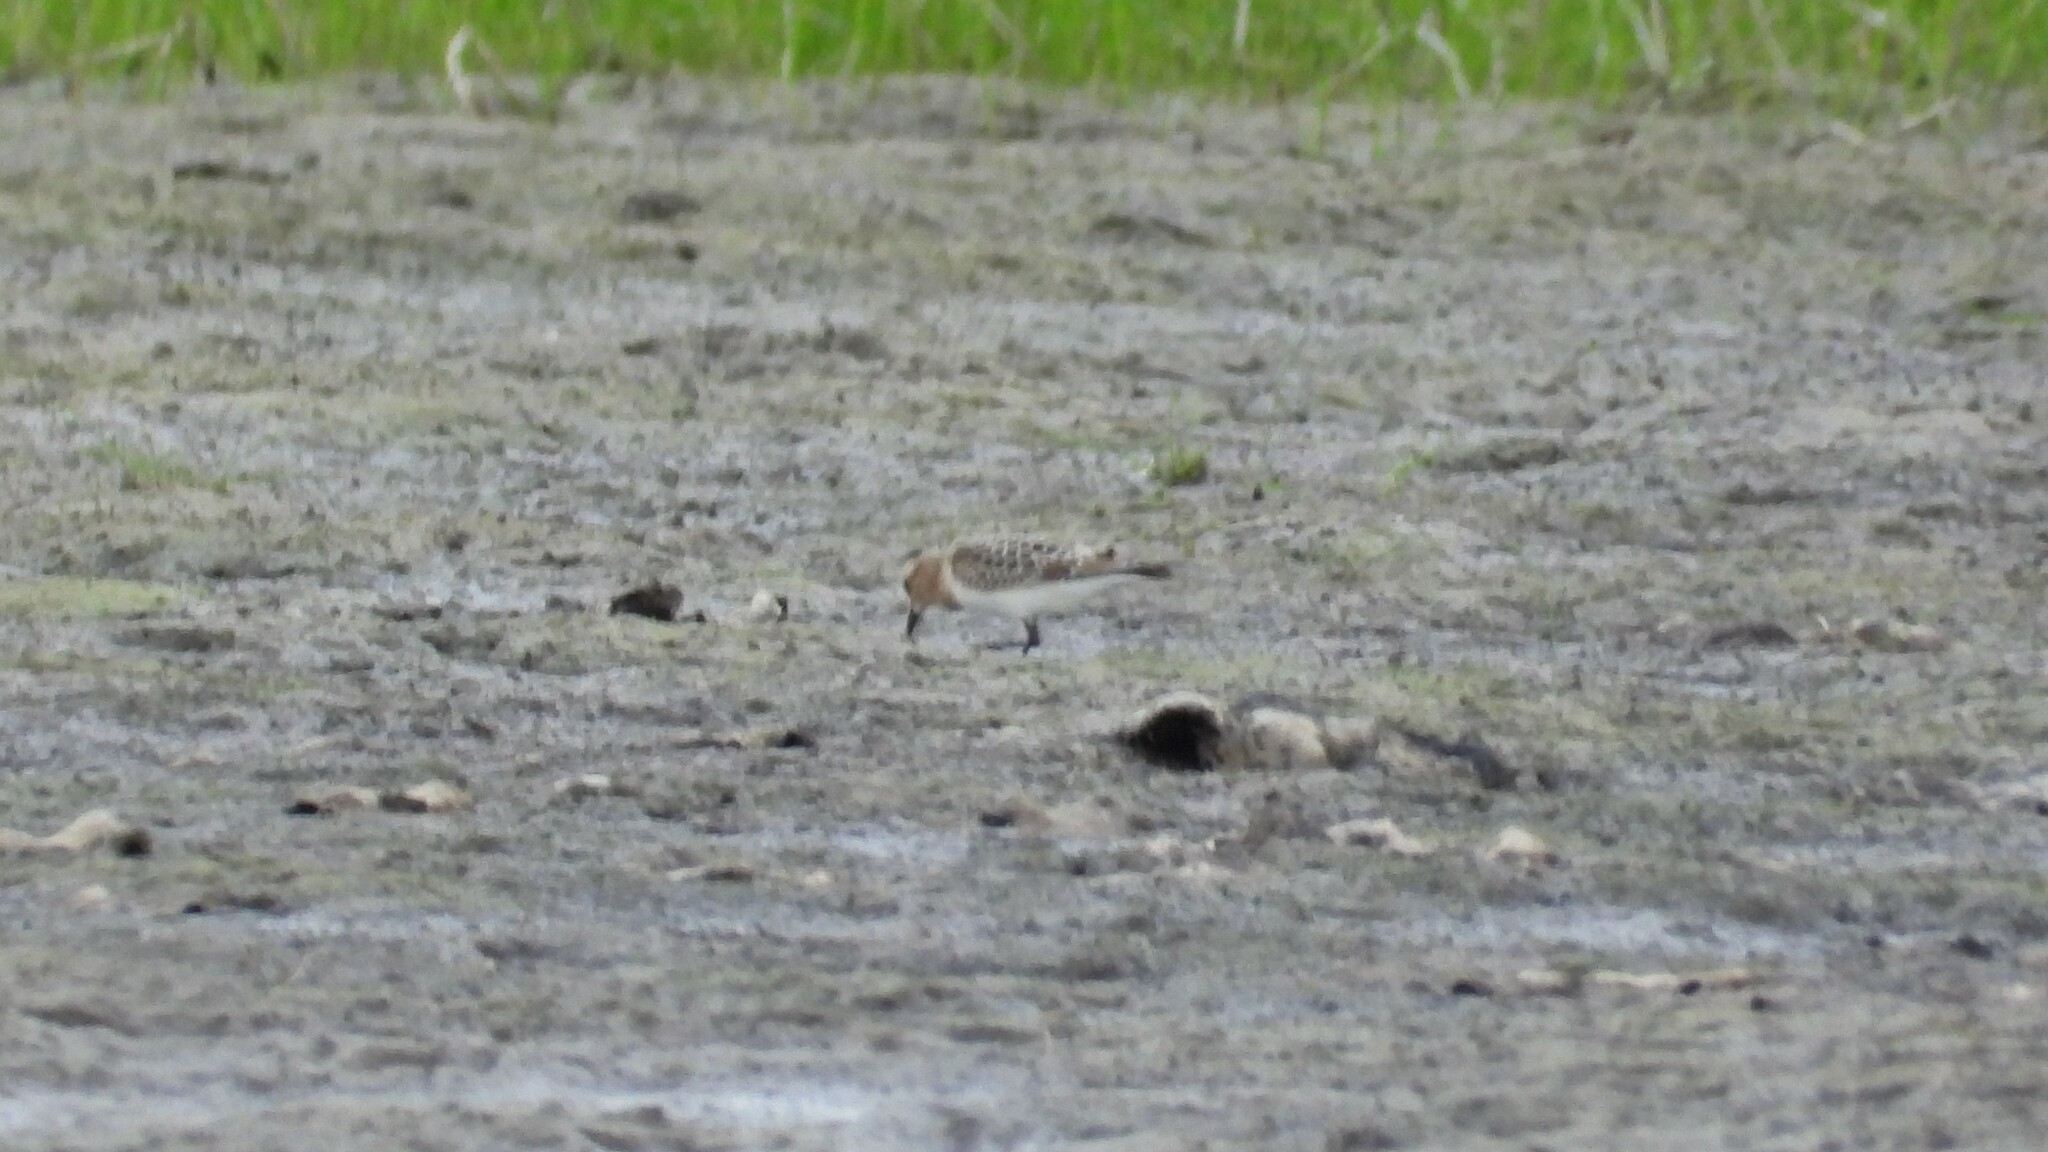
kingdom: Animalia
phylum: Chordata
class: Aves
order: Charadriiformes
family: Scolopacidae
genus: Calidris
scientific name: Calidris bairdii
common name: Baird's sandpiper
